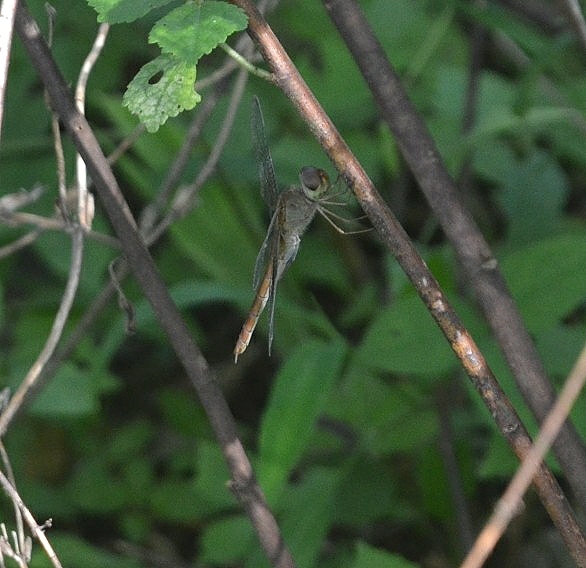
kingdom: Animalia
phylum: Arthropoda
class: Insecta
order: Odonata
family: Libellulidae
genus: Tholymis
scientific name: Tholymis tillarga
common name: Coral-tailed cloud wing
